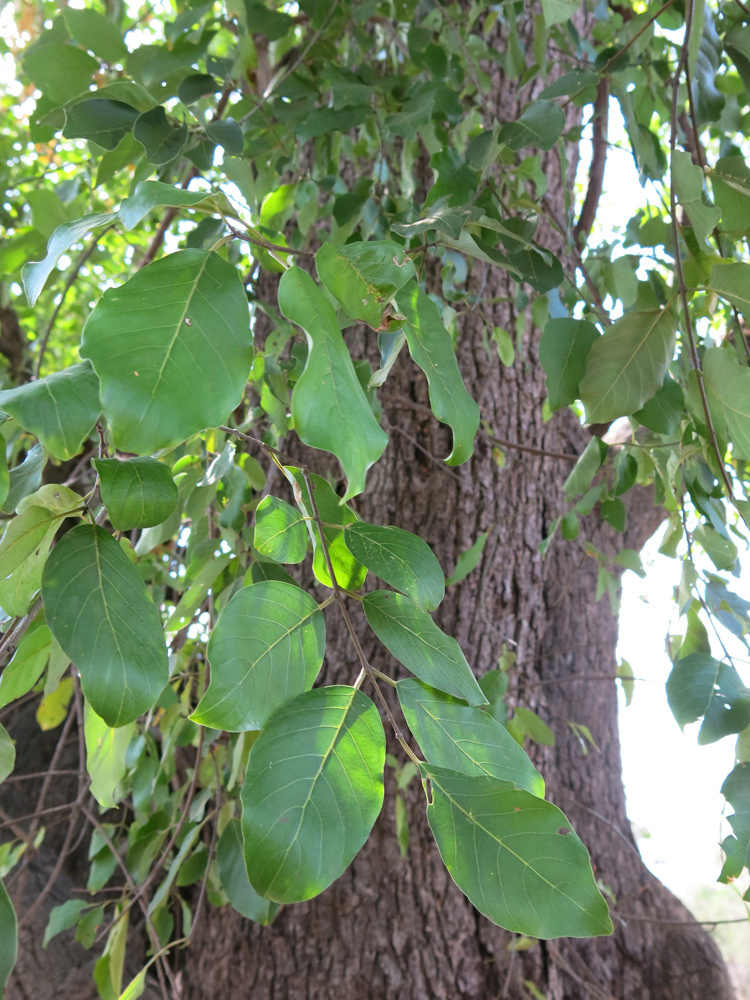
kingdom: Plantae
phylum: Tracheophyta
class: Magnoliopsida
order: Rosales
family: Rhamnaceae
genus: Phyllogeiton
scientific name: Phyllogeiton discolor
